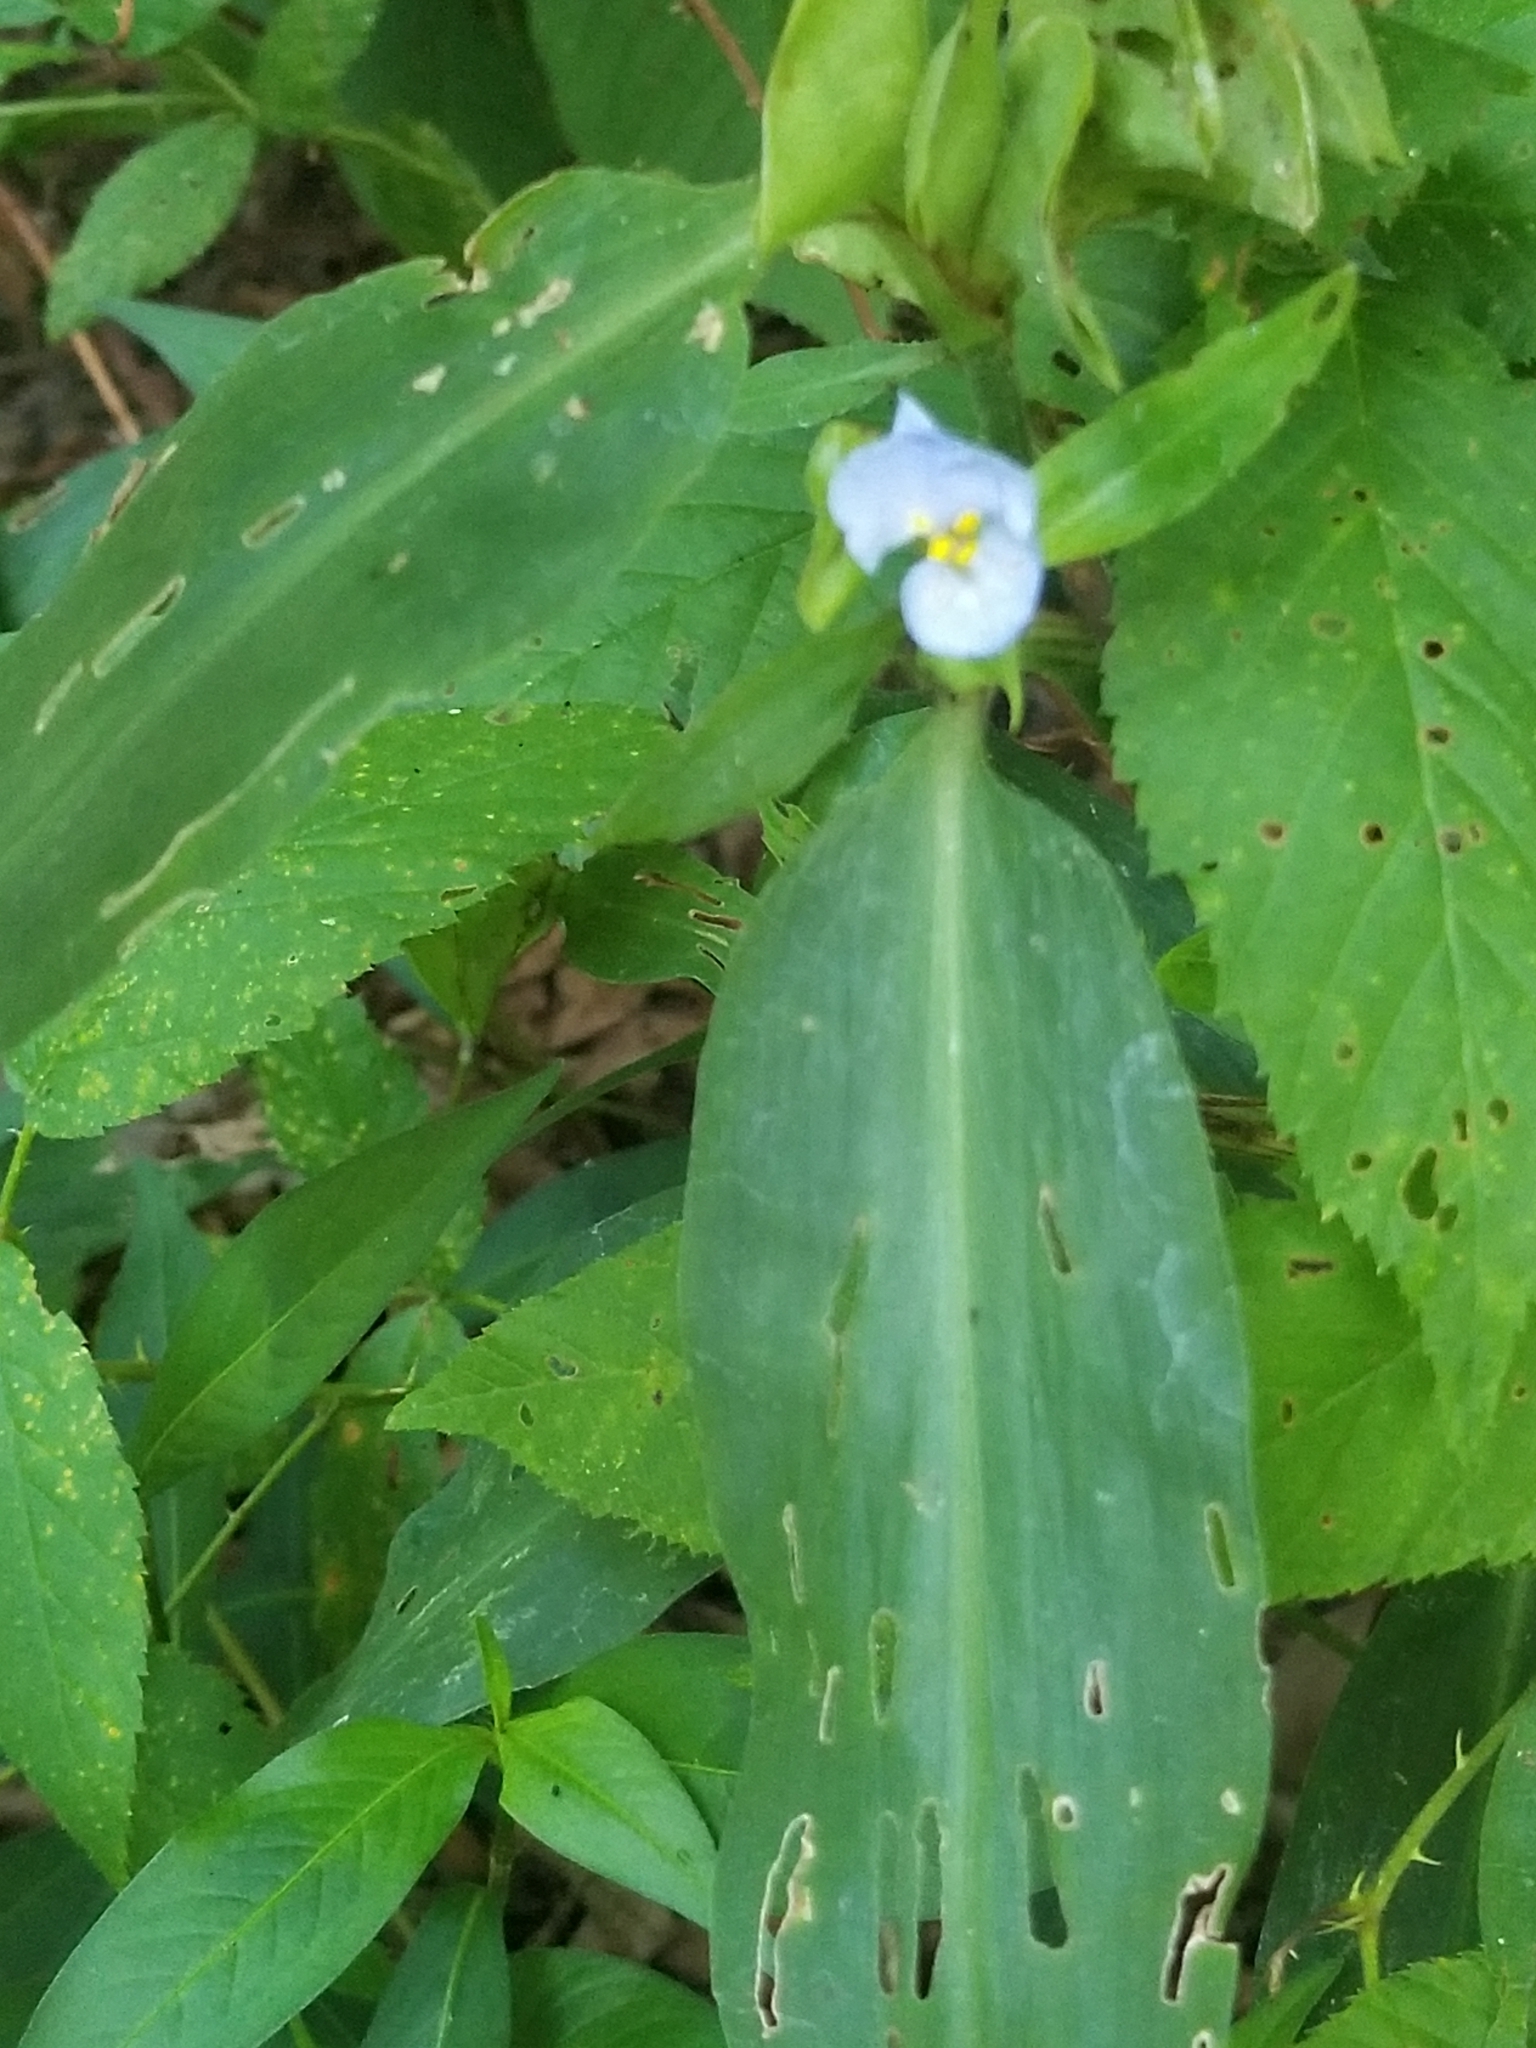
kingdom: Plantae
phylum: Tracheophyta
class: Liliopsida
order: Commelinales
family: Commelinaceae
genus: Commelina
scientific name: Commelina virginica
